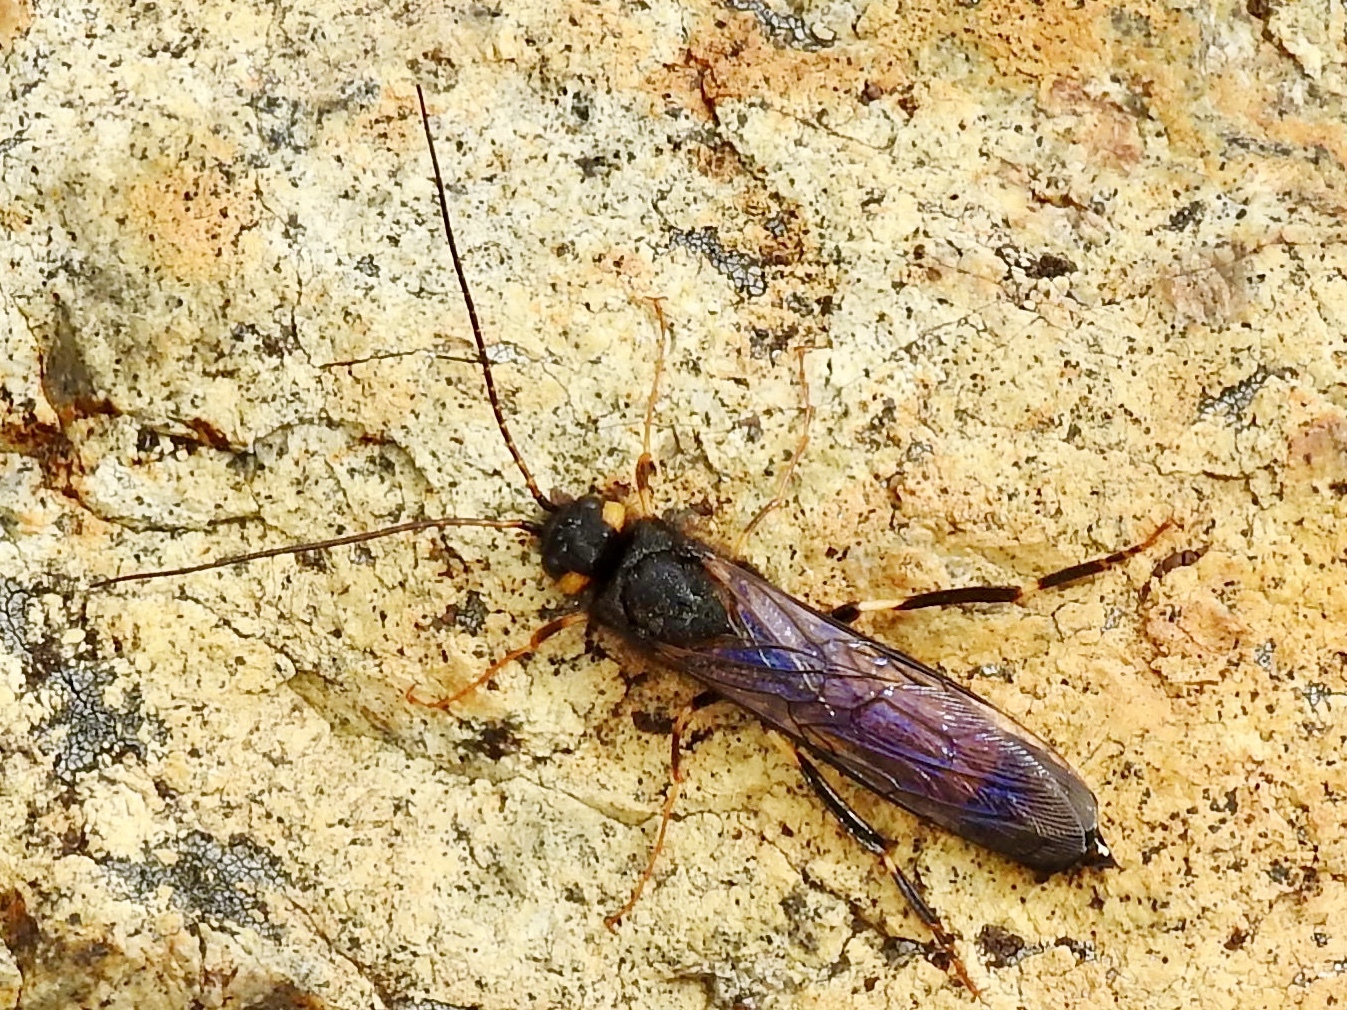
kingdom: Animalia
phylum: Arthropoda
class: Insecta
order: Hymenoptera
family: Siricidae
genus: Urocerus
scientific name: Urocerus flavicornis
